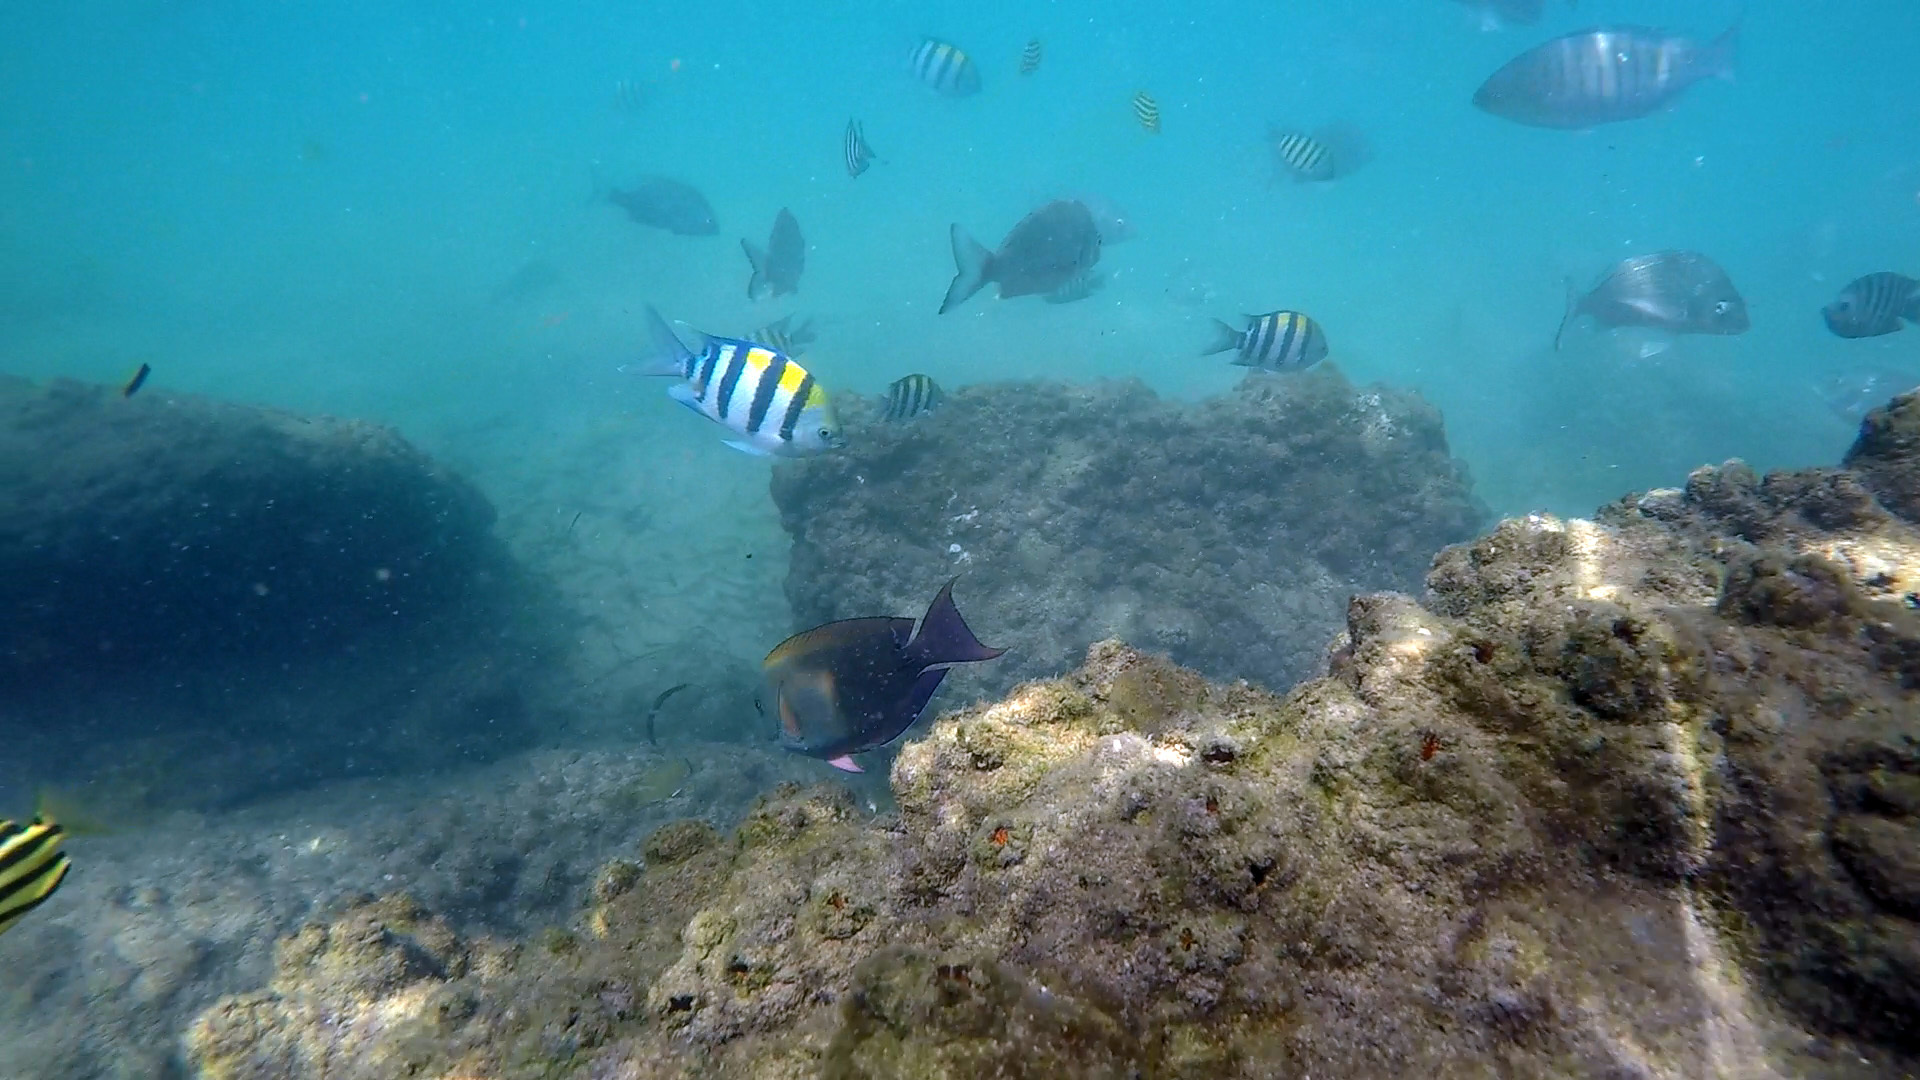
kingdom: Animalia
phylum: Chordata
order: Perciformes
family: Pomacentridae
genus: Abudefduf
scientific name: Abudefduf vaigiensis
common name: Indo-pacific sergeant
